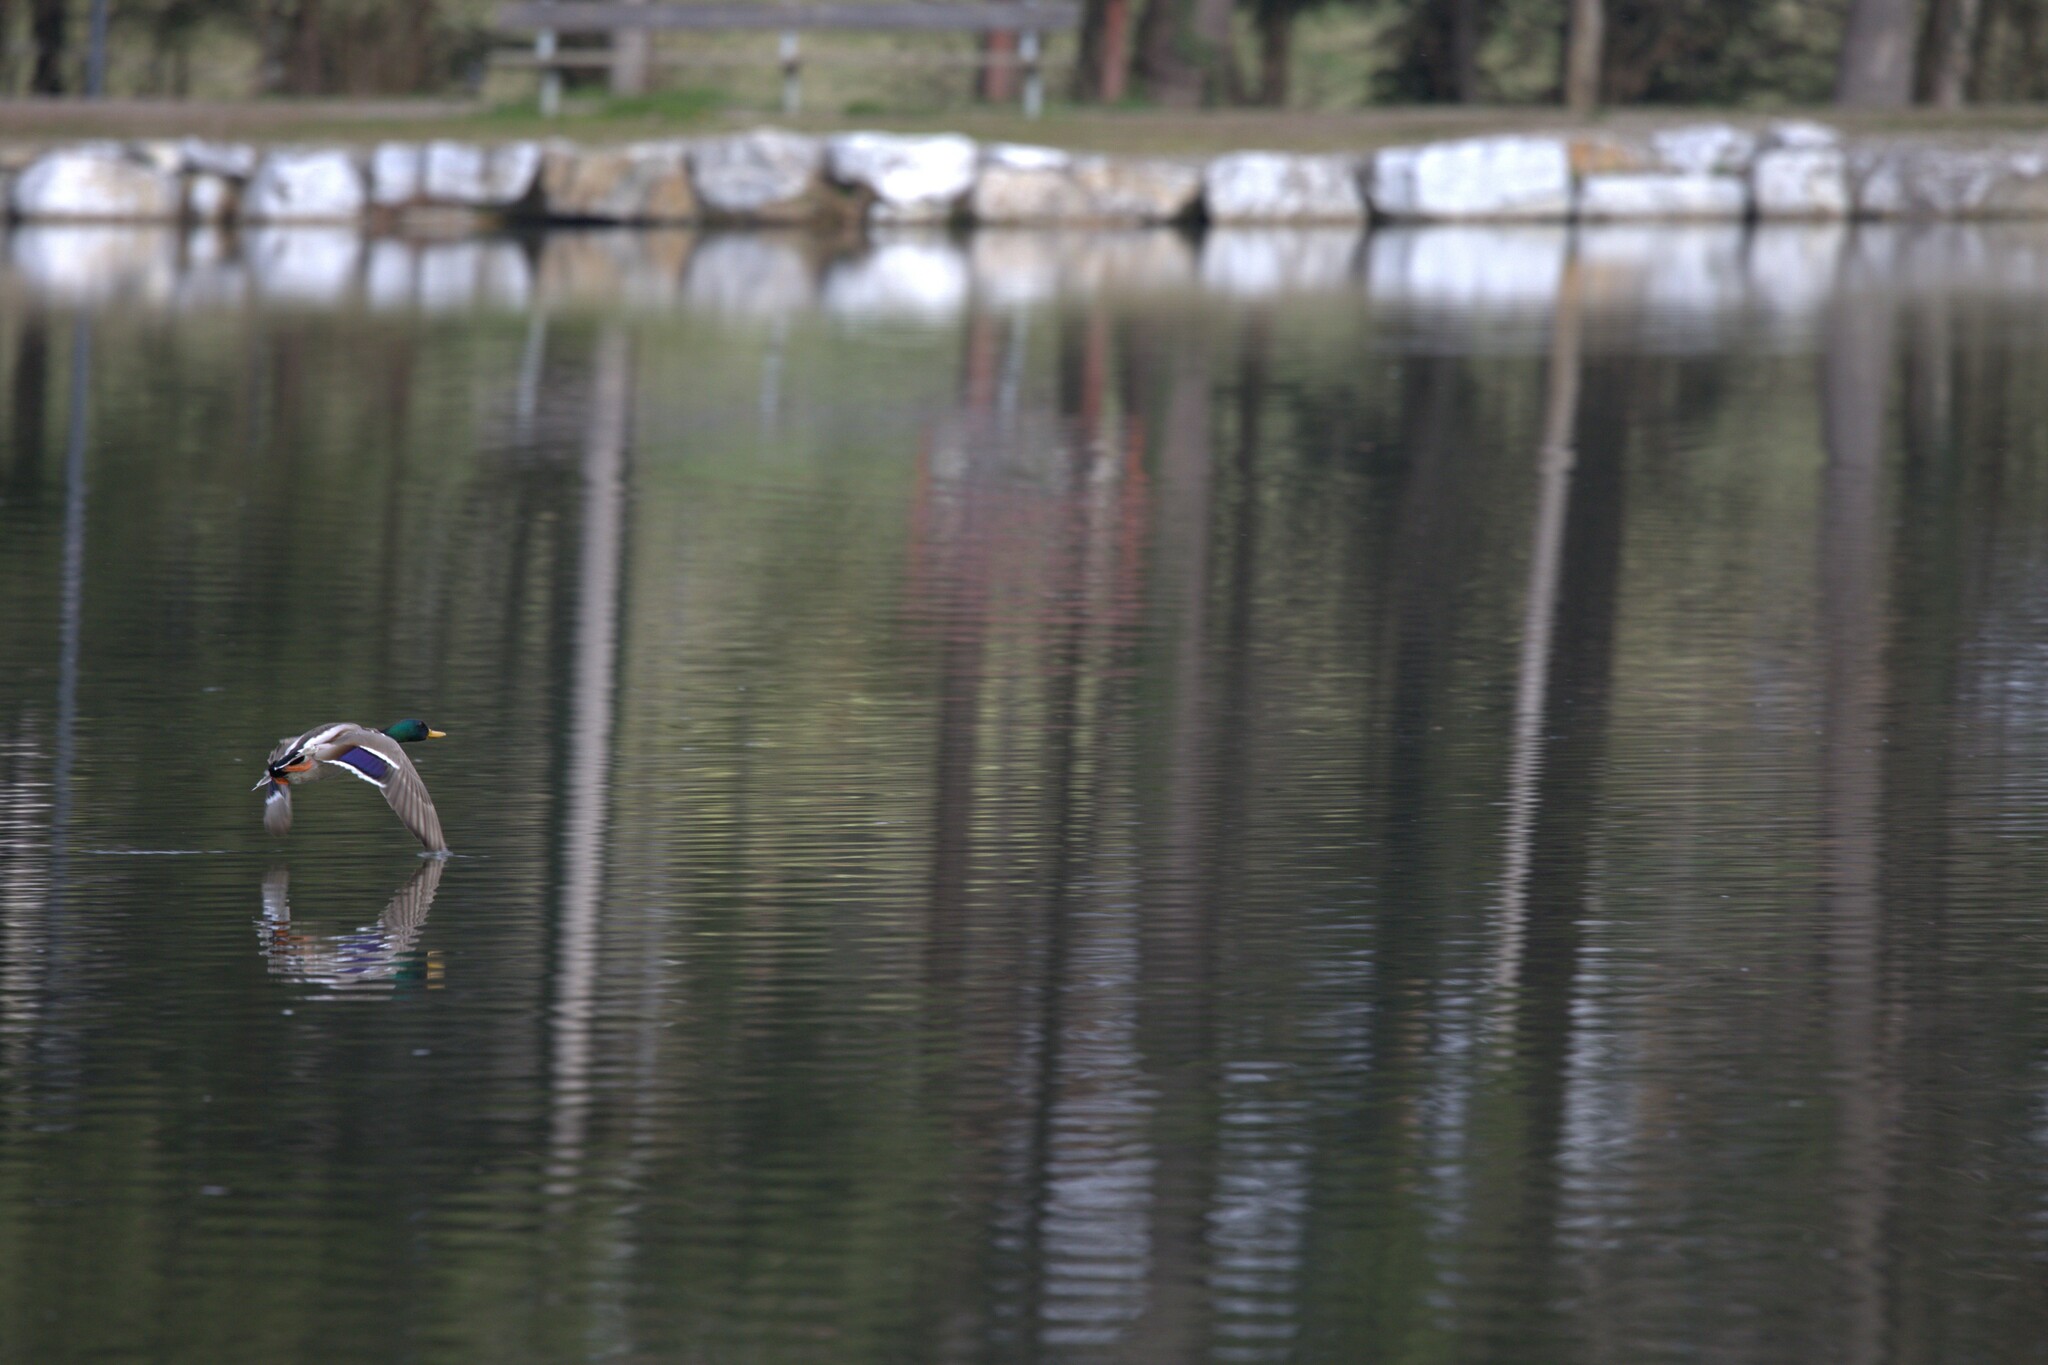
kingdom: Animalia
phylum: Chordata
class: Aves
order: Anseriformes
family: Anatidae
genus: Anas
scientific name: Anas platyrhynchos
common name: Mallard
